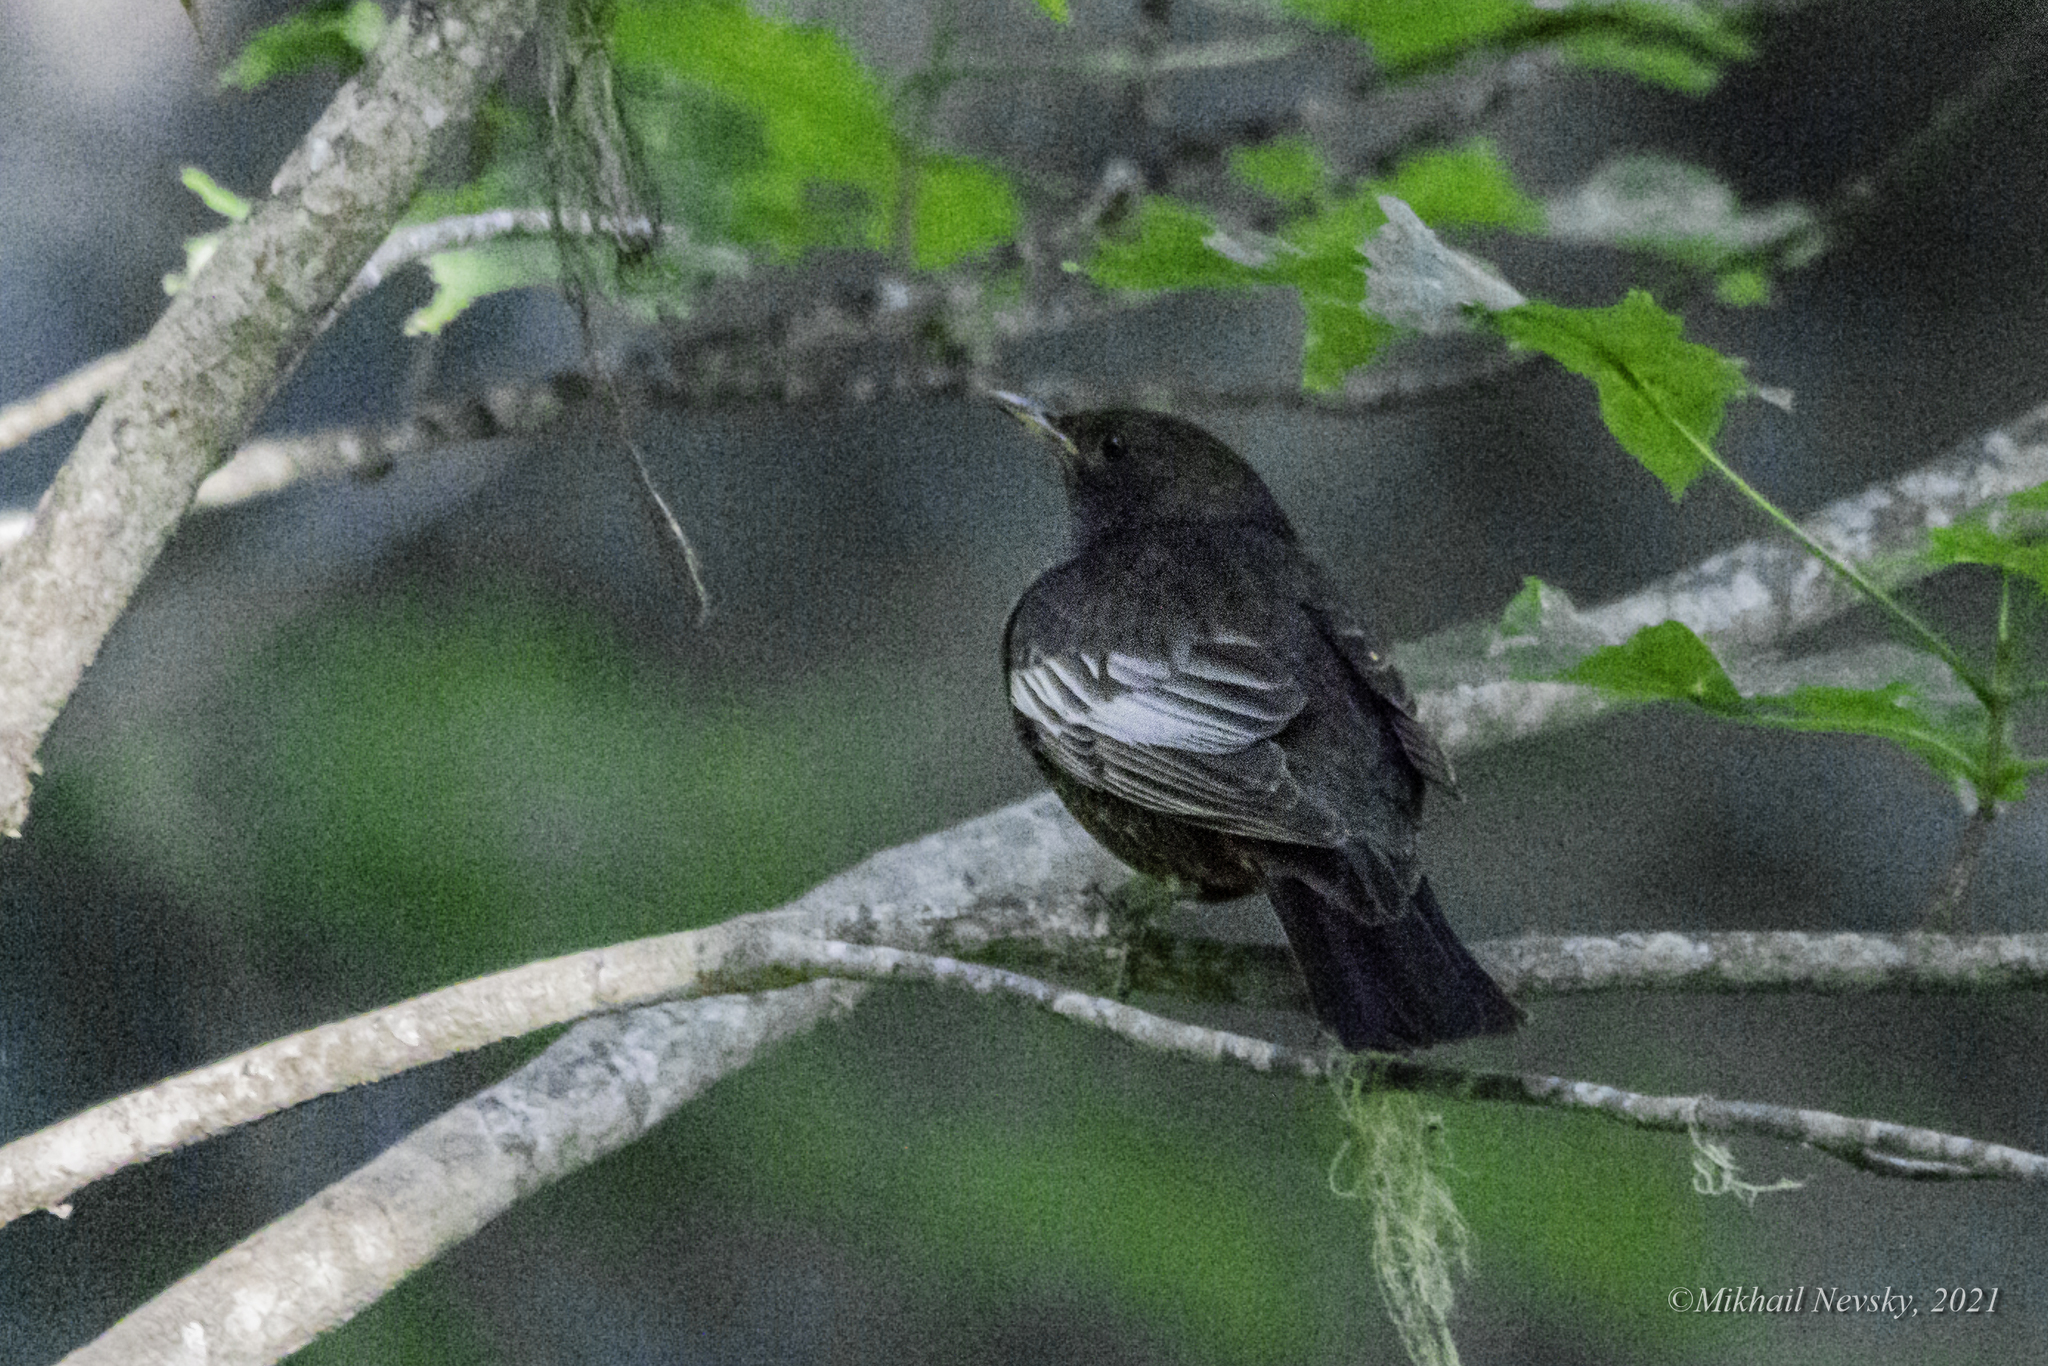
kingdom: Animalia
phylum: Chordata
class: Aves
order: Passeriformes
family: Turdidae
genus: Turdus
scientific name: Turdus torquatus
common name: Ring ouzel
